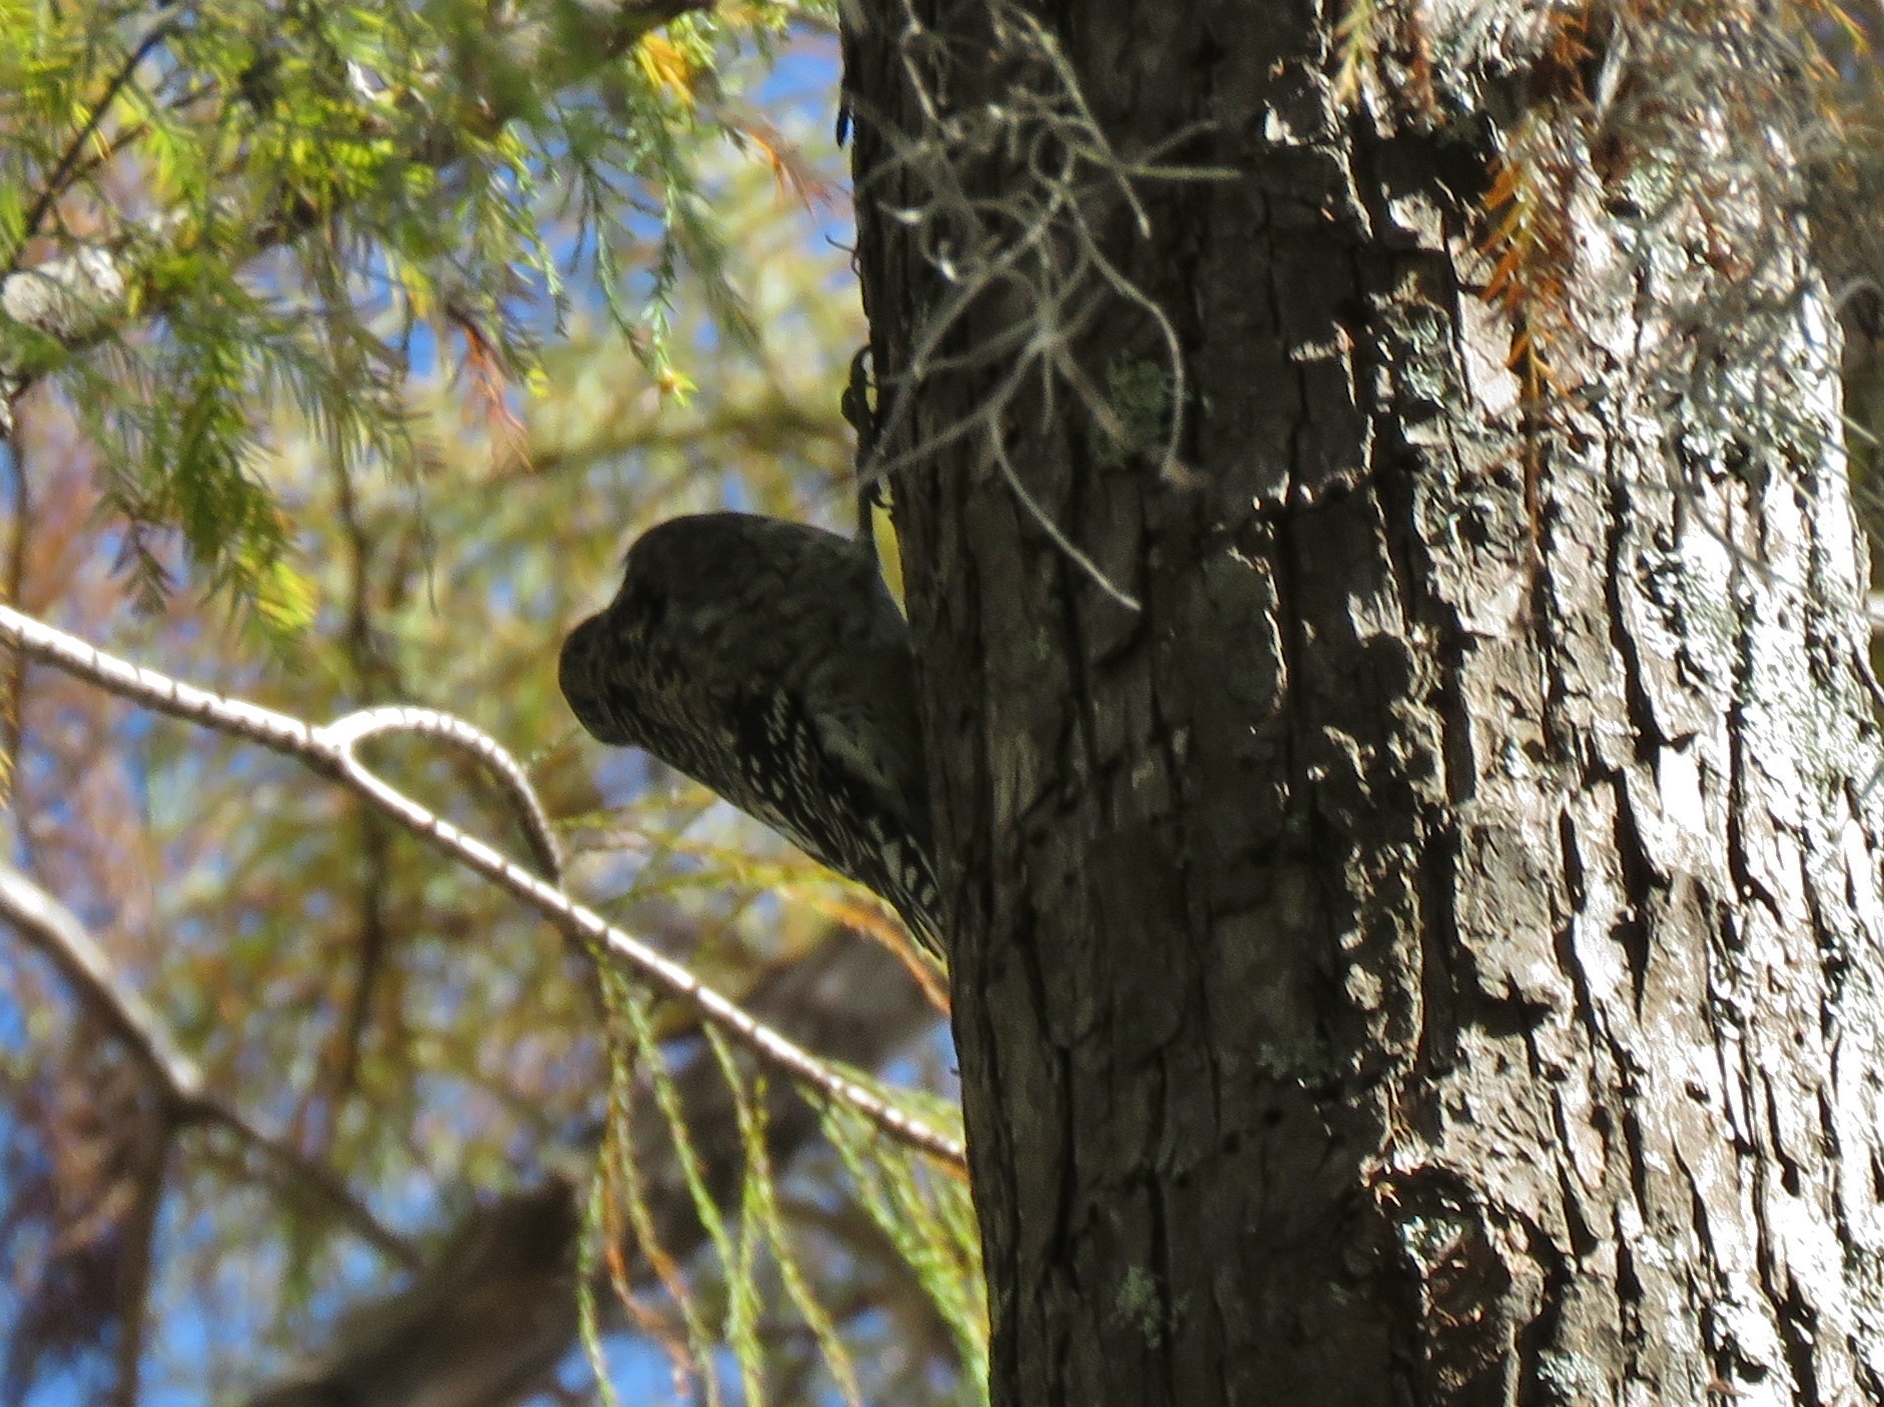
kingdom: Animalia
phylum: Chordata
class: Aves
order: Piciformes
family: Picidae
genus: Sphyrapicus
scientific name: Sphyrapicus varius
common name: Yellow-bellied sapsucker
